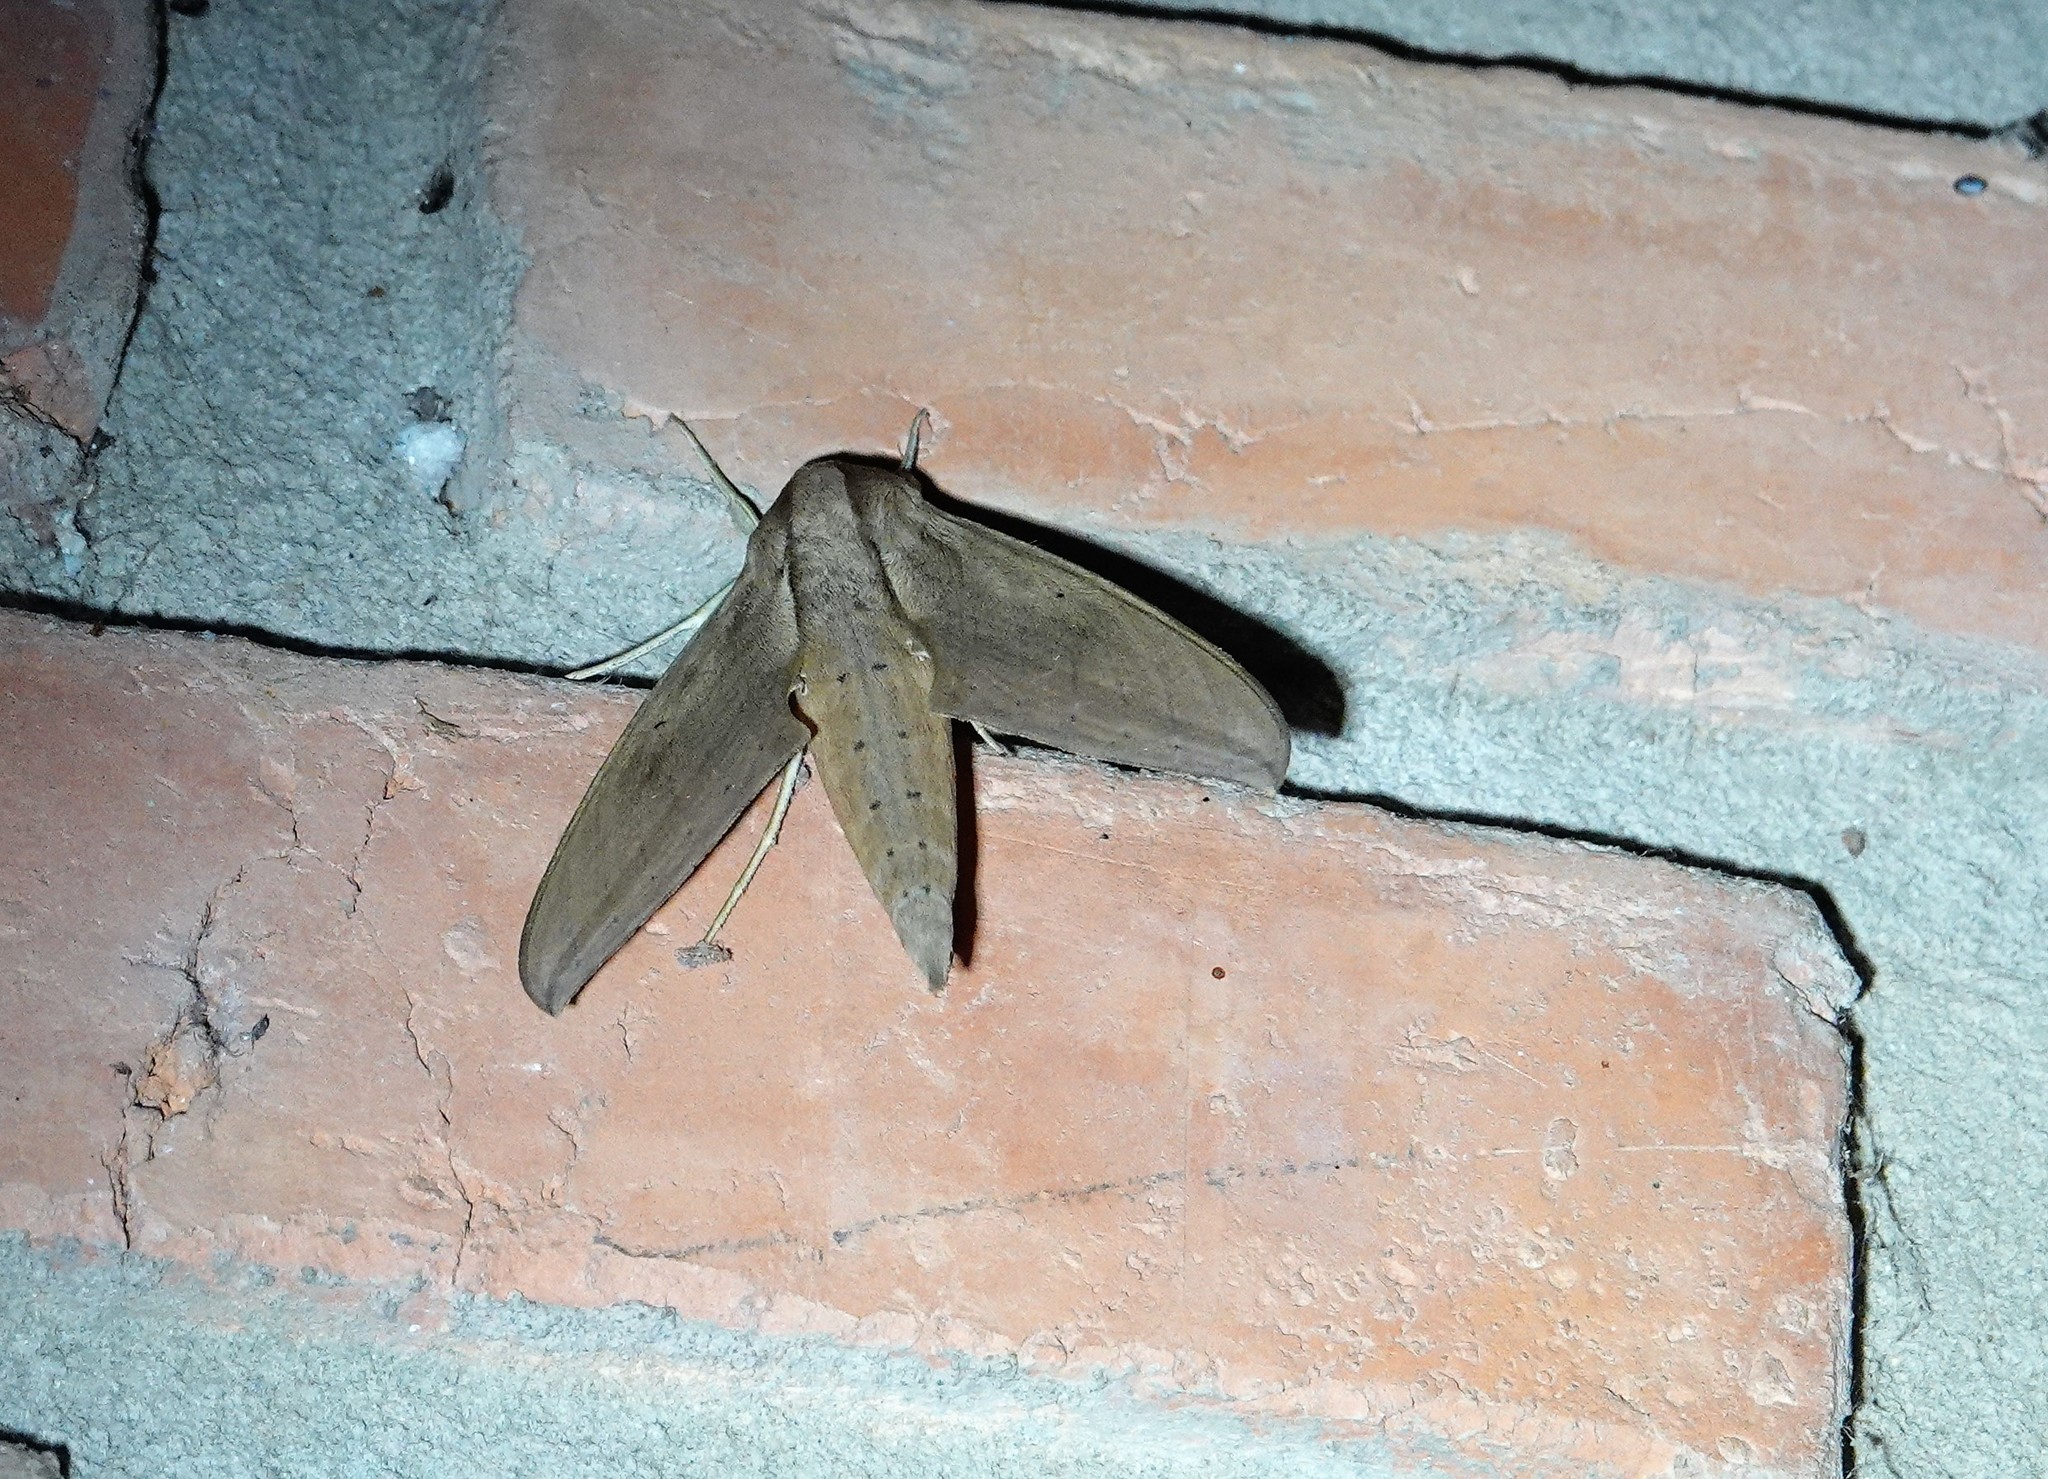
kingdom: Animalia
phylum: Arthropoda
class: Insecta
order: Lepidoptera
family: Sphingidae
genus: Xylophanes
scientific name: Xylophanes anubus
